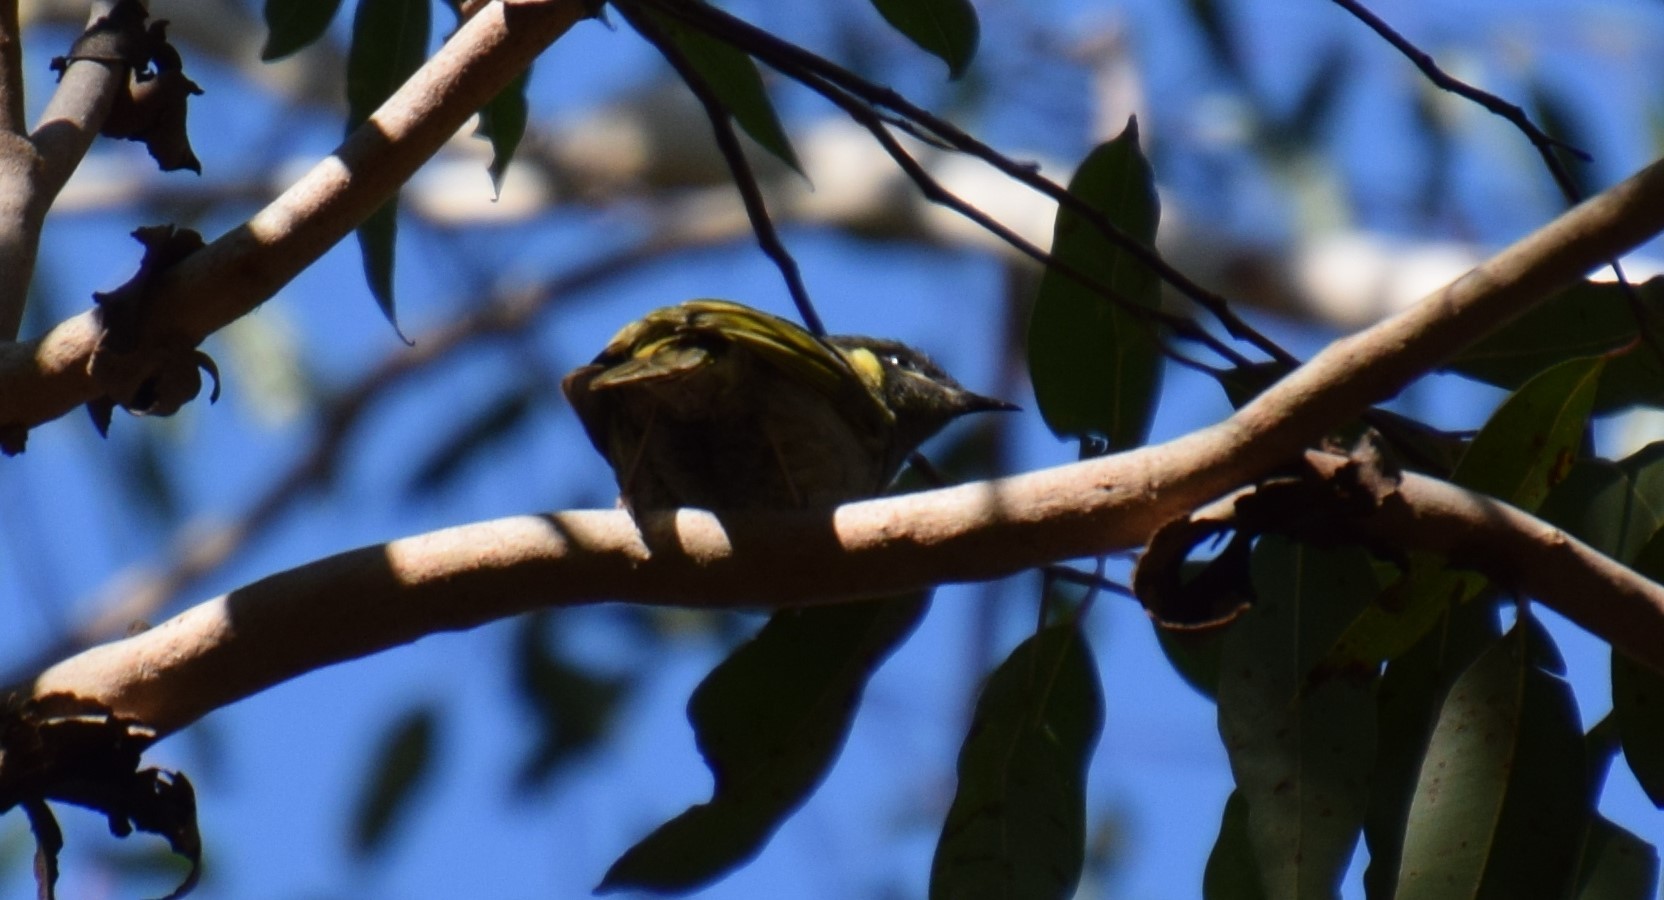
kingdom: Animalia
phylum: Chordata
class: Aves
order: Passeriformes
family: Meliphagidae
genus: Meliphaga
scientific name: Meliphaga lewinii
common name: Lewin's honeyeater
